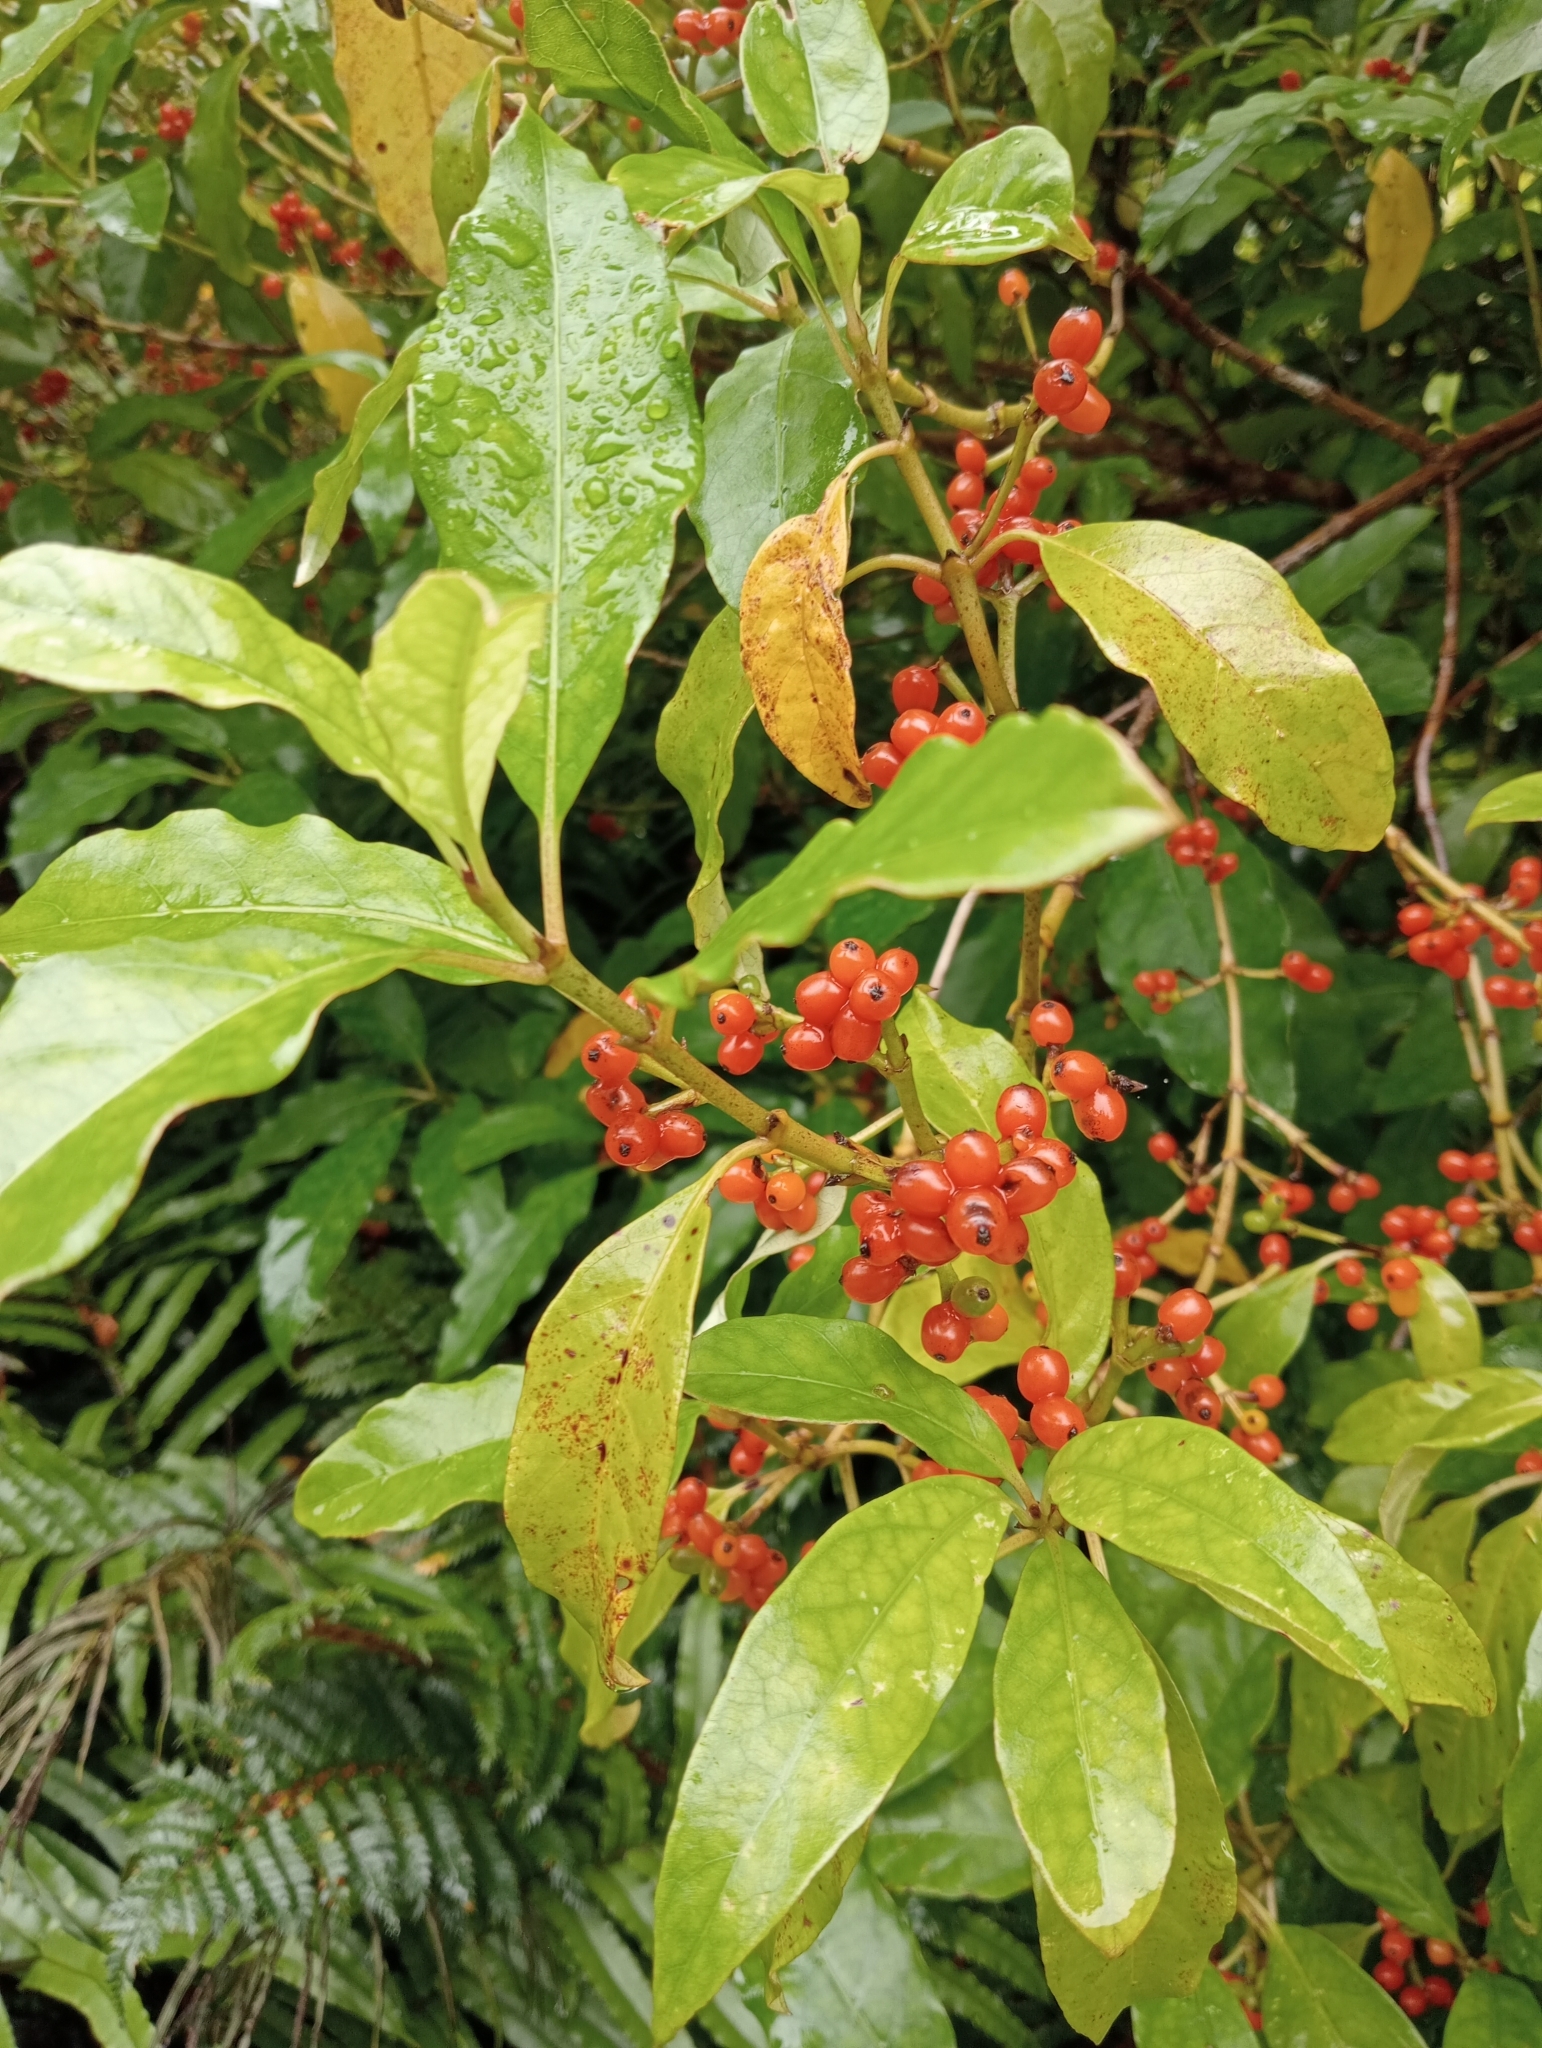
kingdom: Plantae
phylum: Tracheophyta
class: Magnoliopsida
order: Gentianales
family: Rubiaceae
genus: Coprosma
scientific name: Coprosma autumnalis
